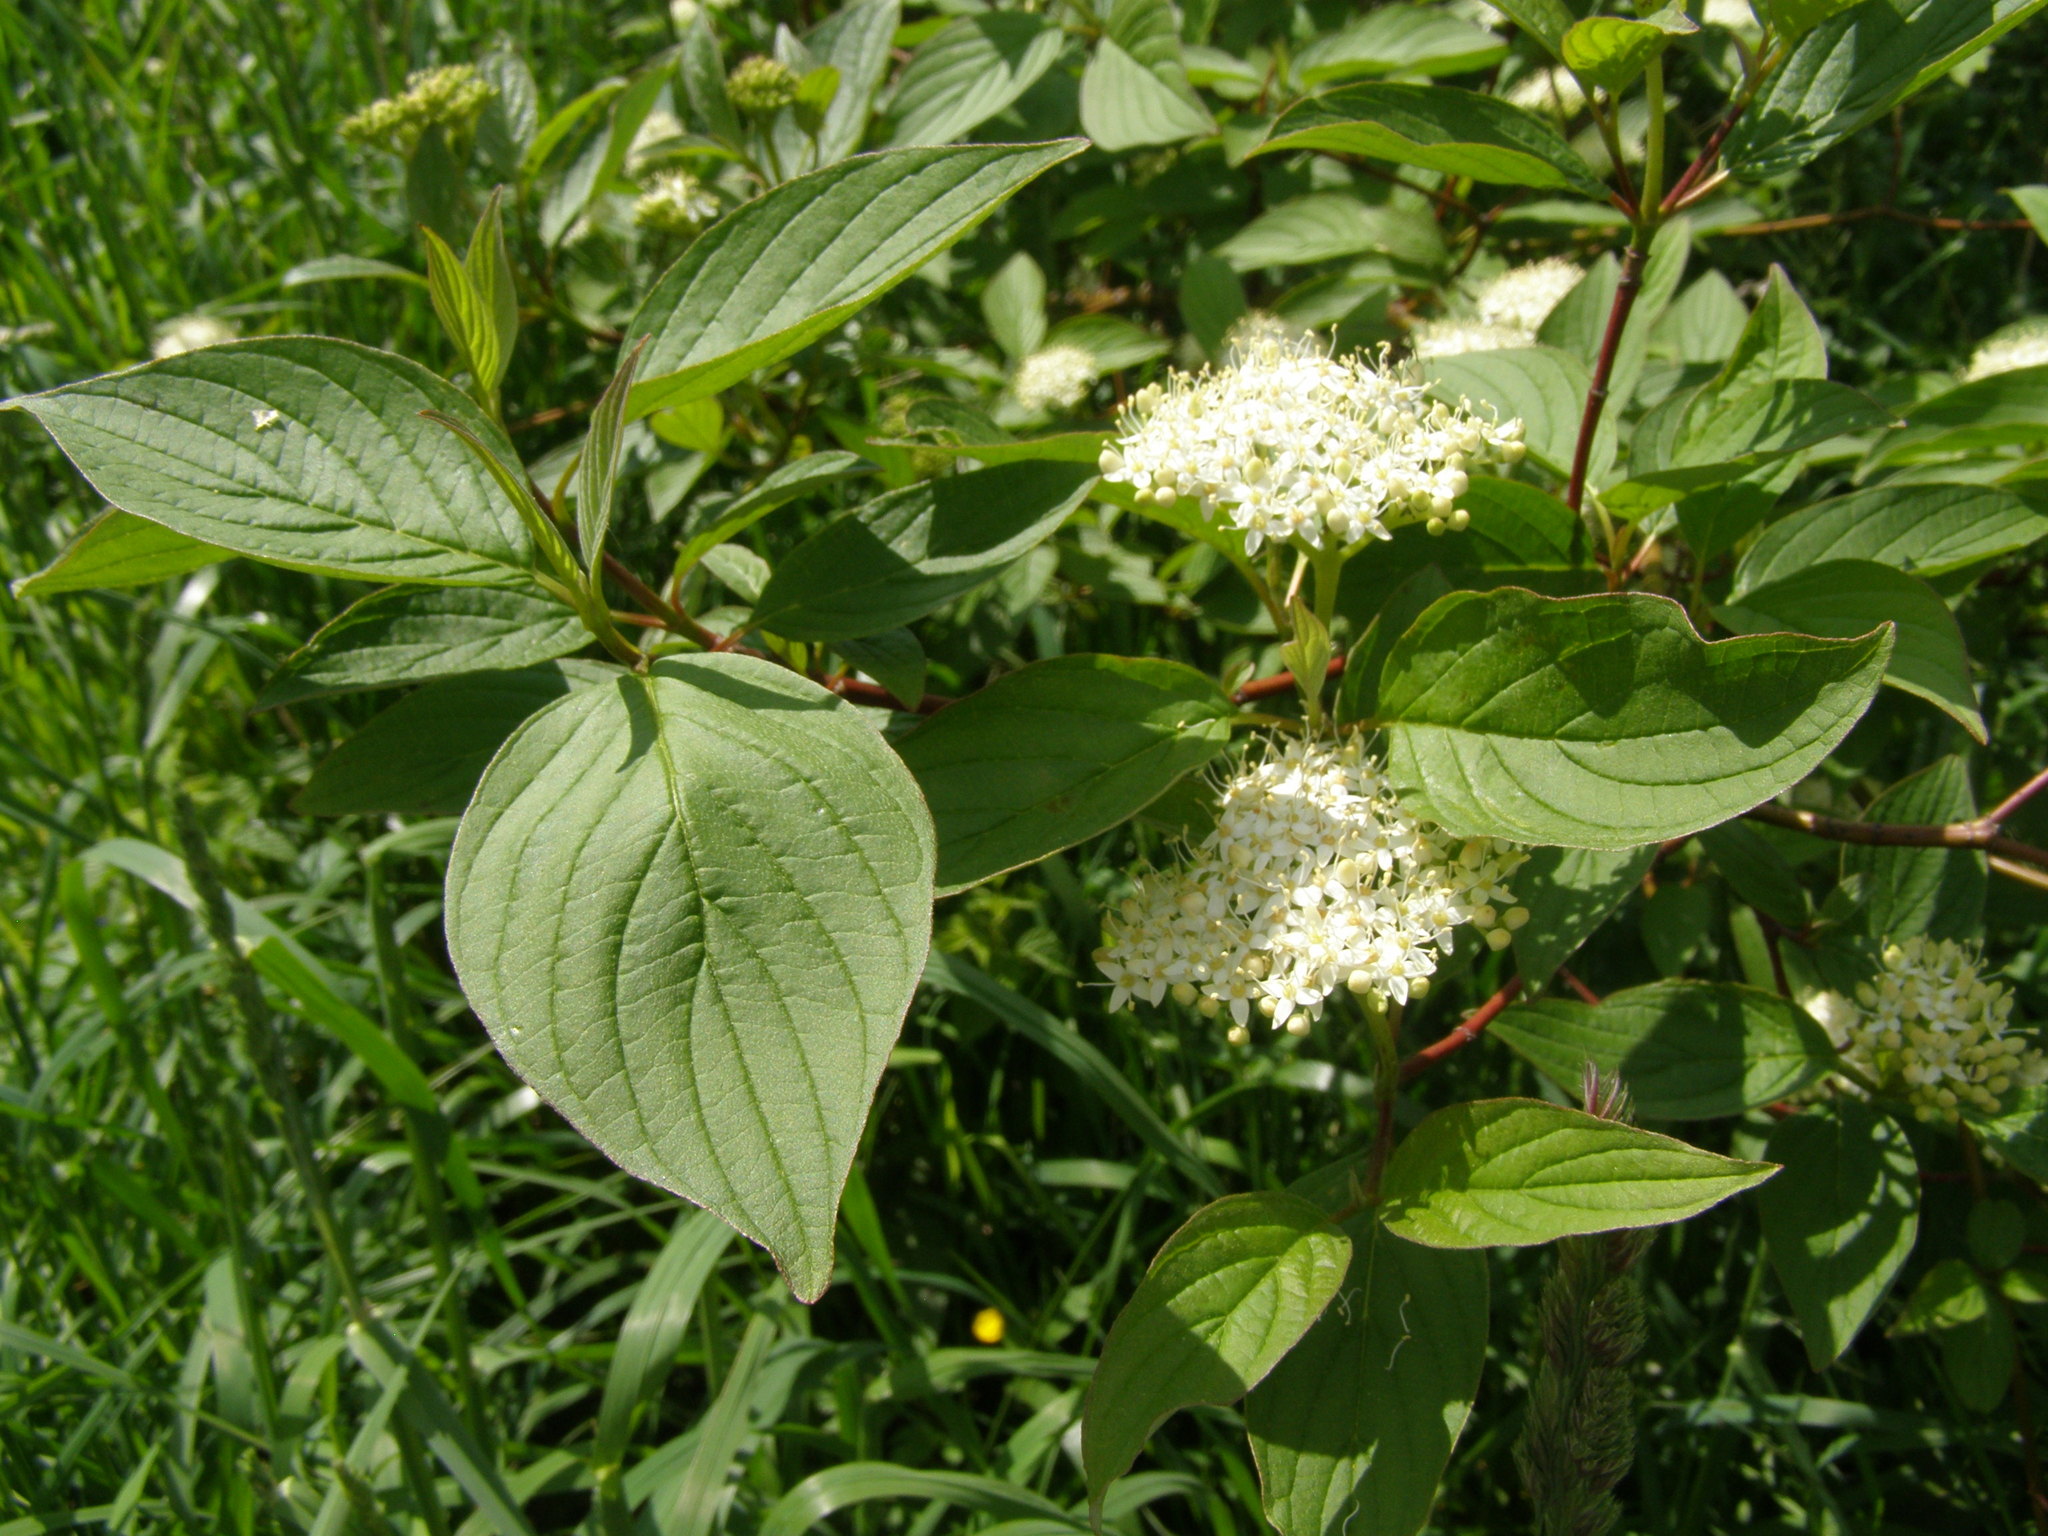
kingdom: Plantae
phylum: Tracheophyta
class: Magnoliopsida
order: Cornales
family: Cornaceae
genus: Cornus
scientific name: Cornus alba
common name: White dogwood
